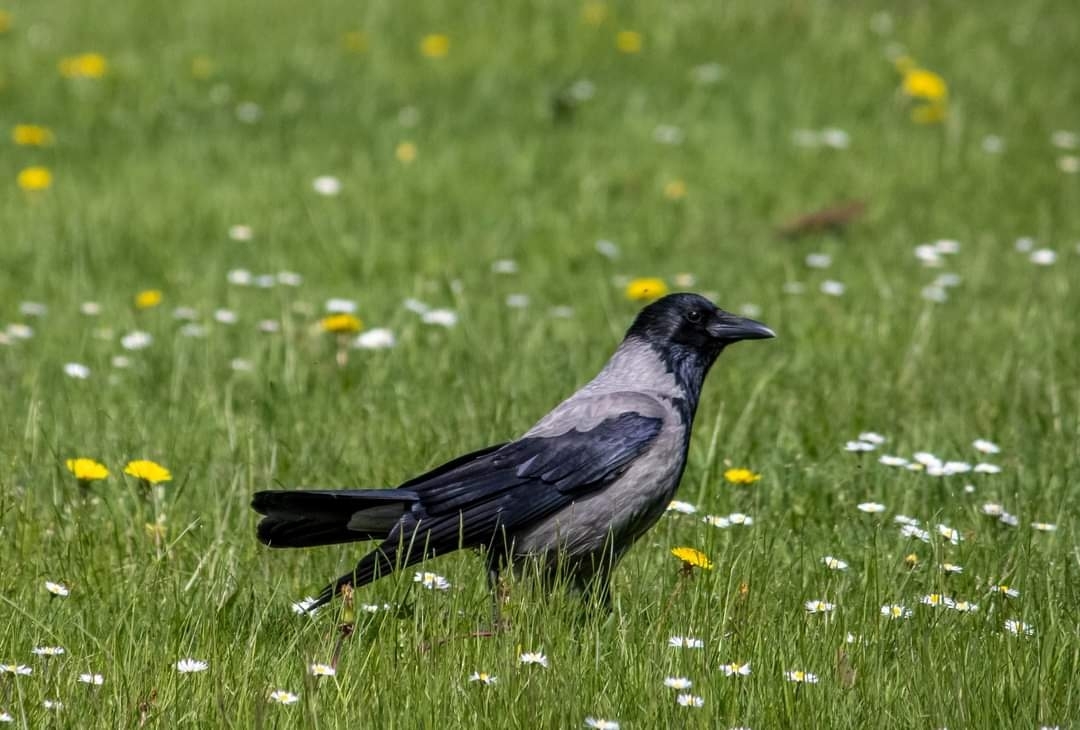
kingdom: Animalia
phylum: Chordata
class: Aves
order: Passeriformes
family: Corvidae
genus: Corvus
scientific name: Corvus cornix
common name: Hooded crow
